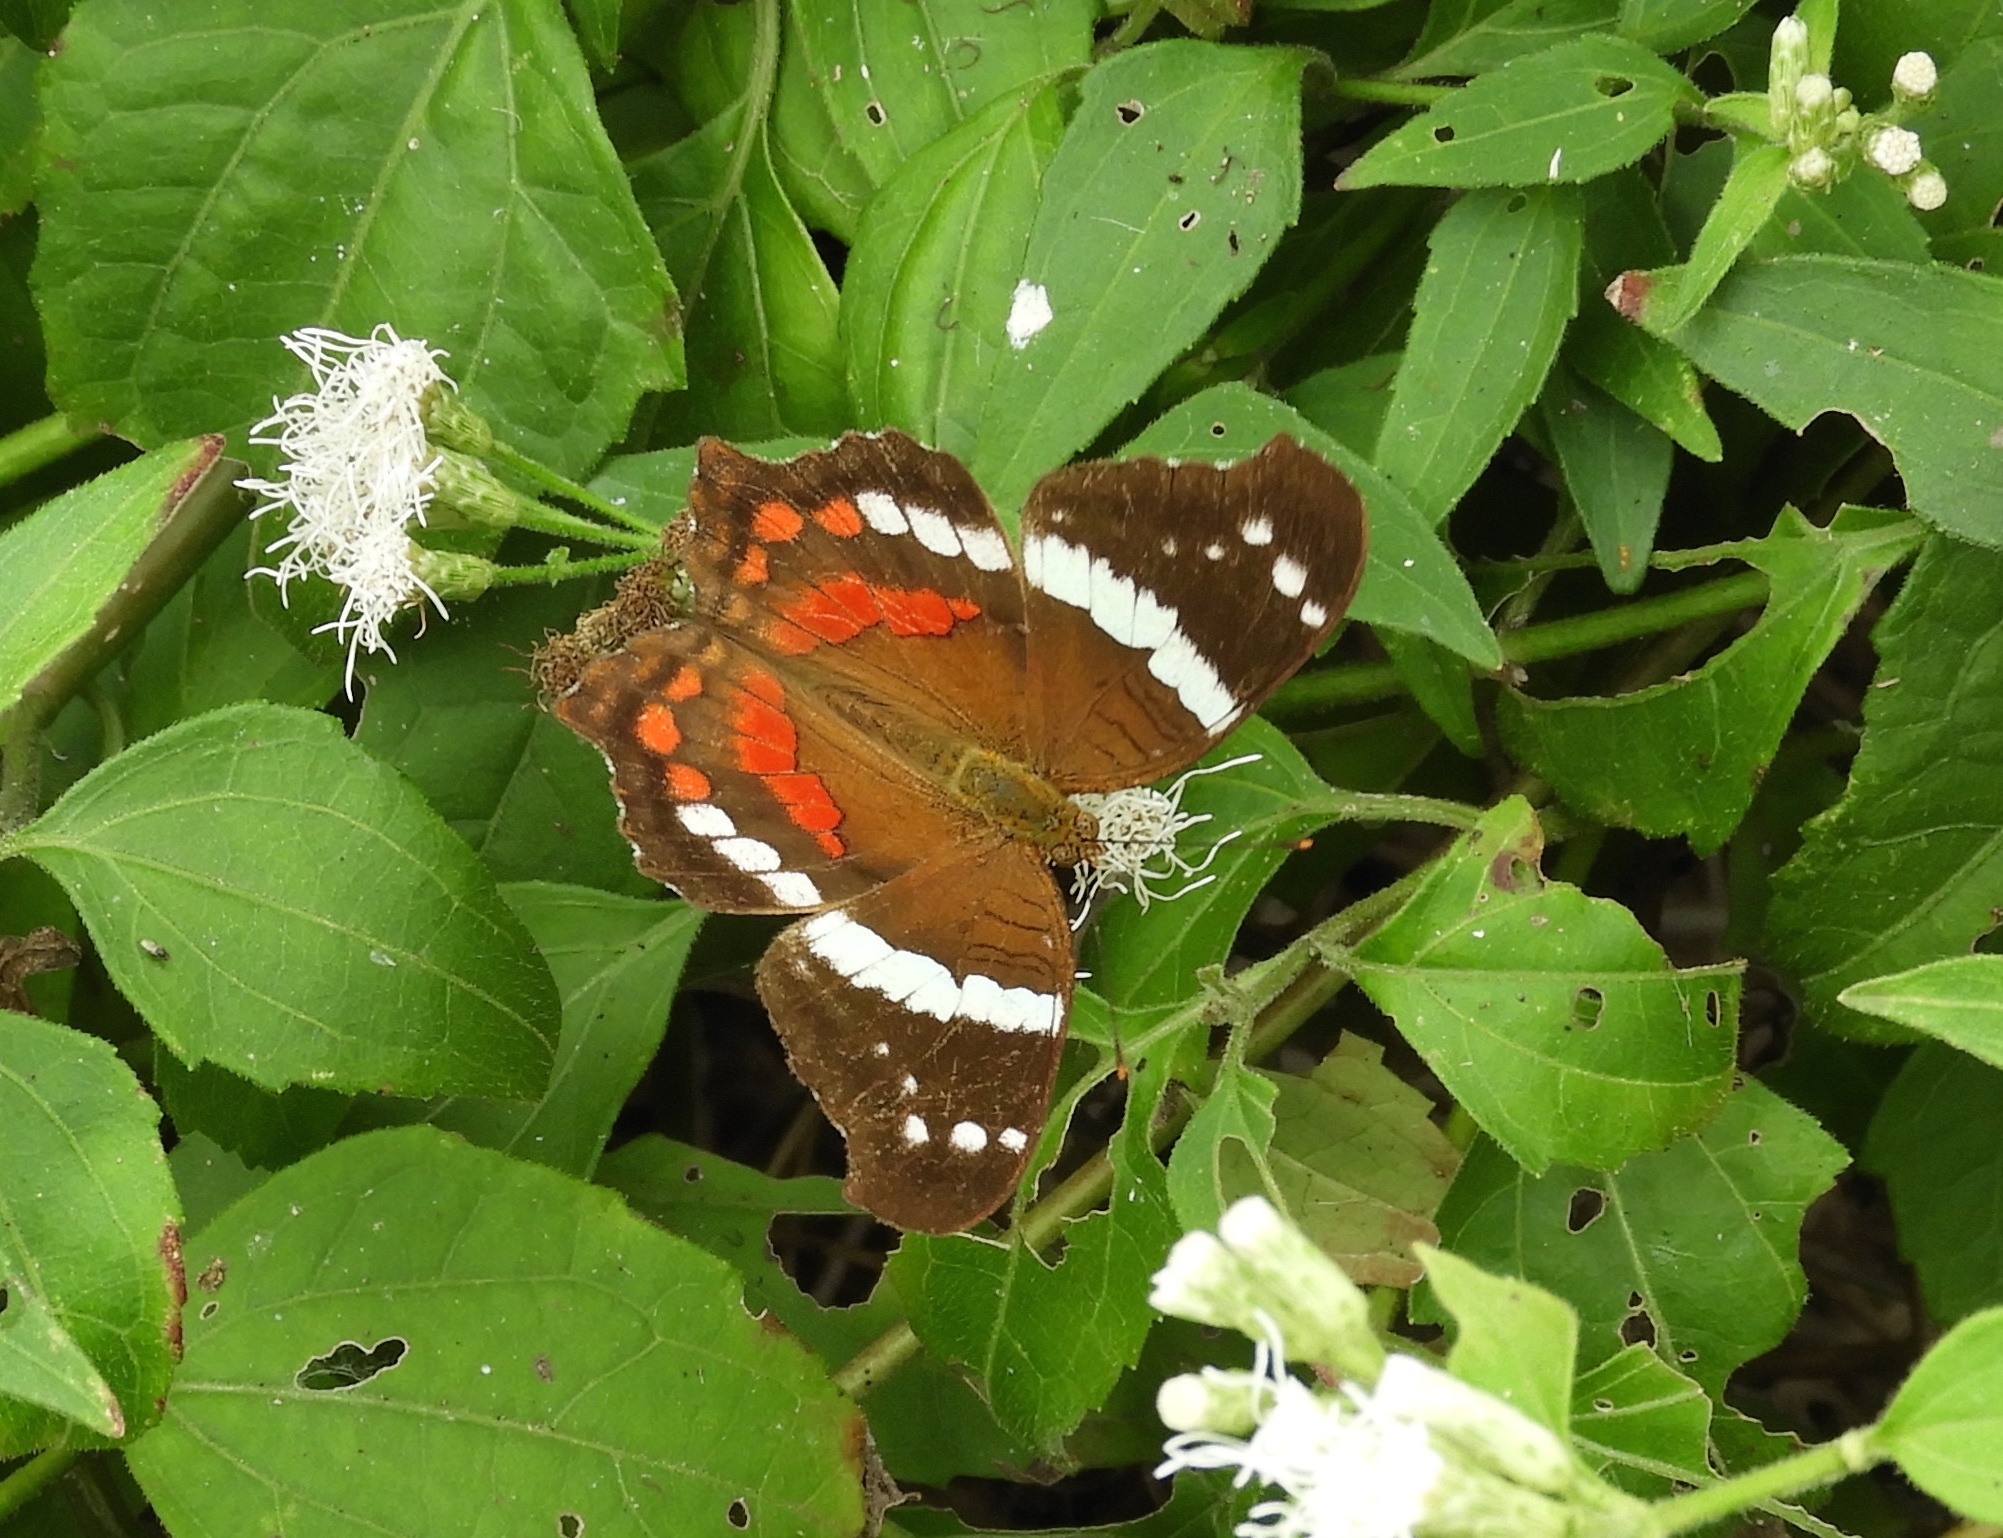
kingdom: Animalia
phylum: Arthropoda
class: Insecta
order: Lepidoptera
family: Nymphalidae
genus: Anartia
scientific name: Anartia fatima
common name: Banded peacock
